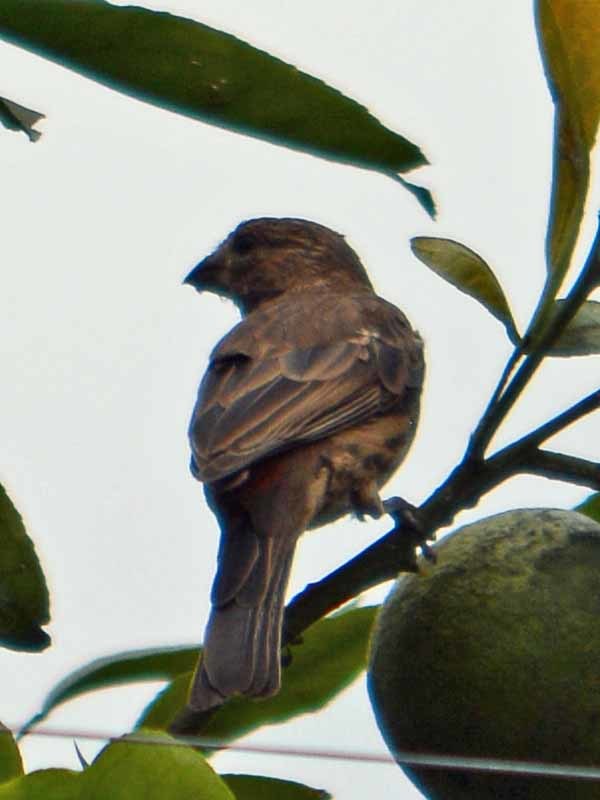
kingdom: Animalia
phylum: Chordata
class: Aves
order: Passeriformes
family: Fringillidae
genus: Haemorhous
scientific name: Haemorhous mexicanus
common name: House finch
